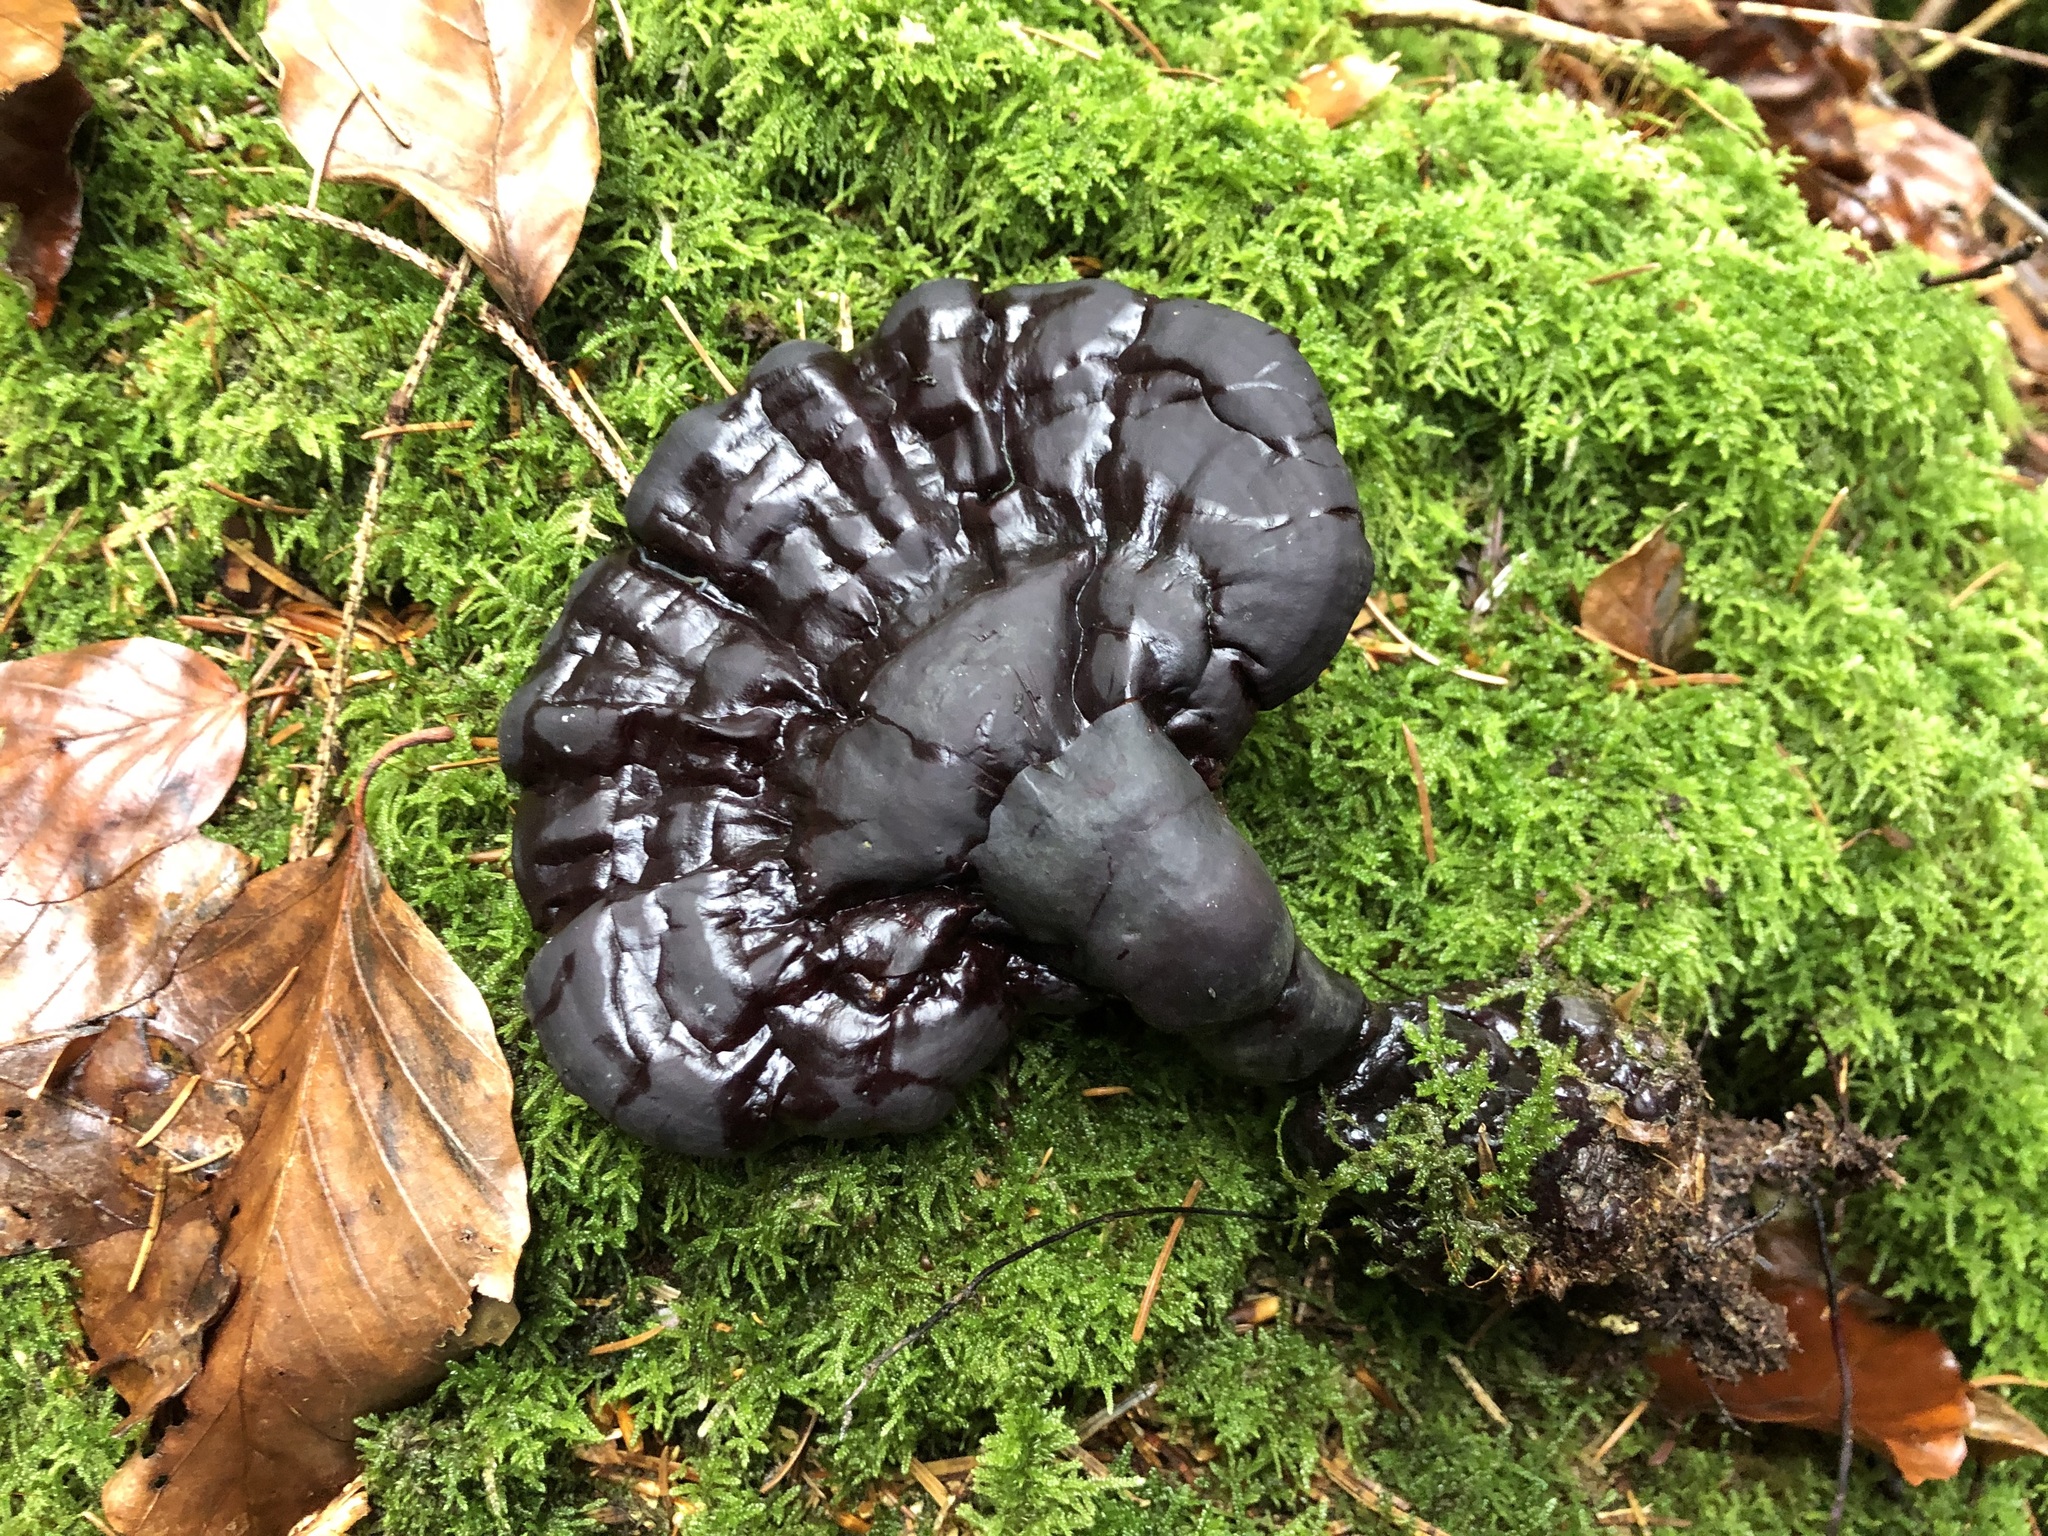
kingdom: Fungi
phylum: Basidiomycota
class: Agaricomycetes
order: Polyporales
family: Polyporaceae
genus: Ganoderma
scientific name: Ganoderma carnosum
